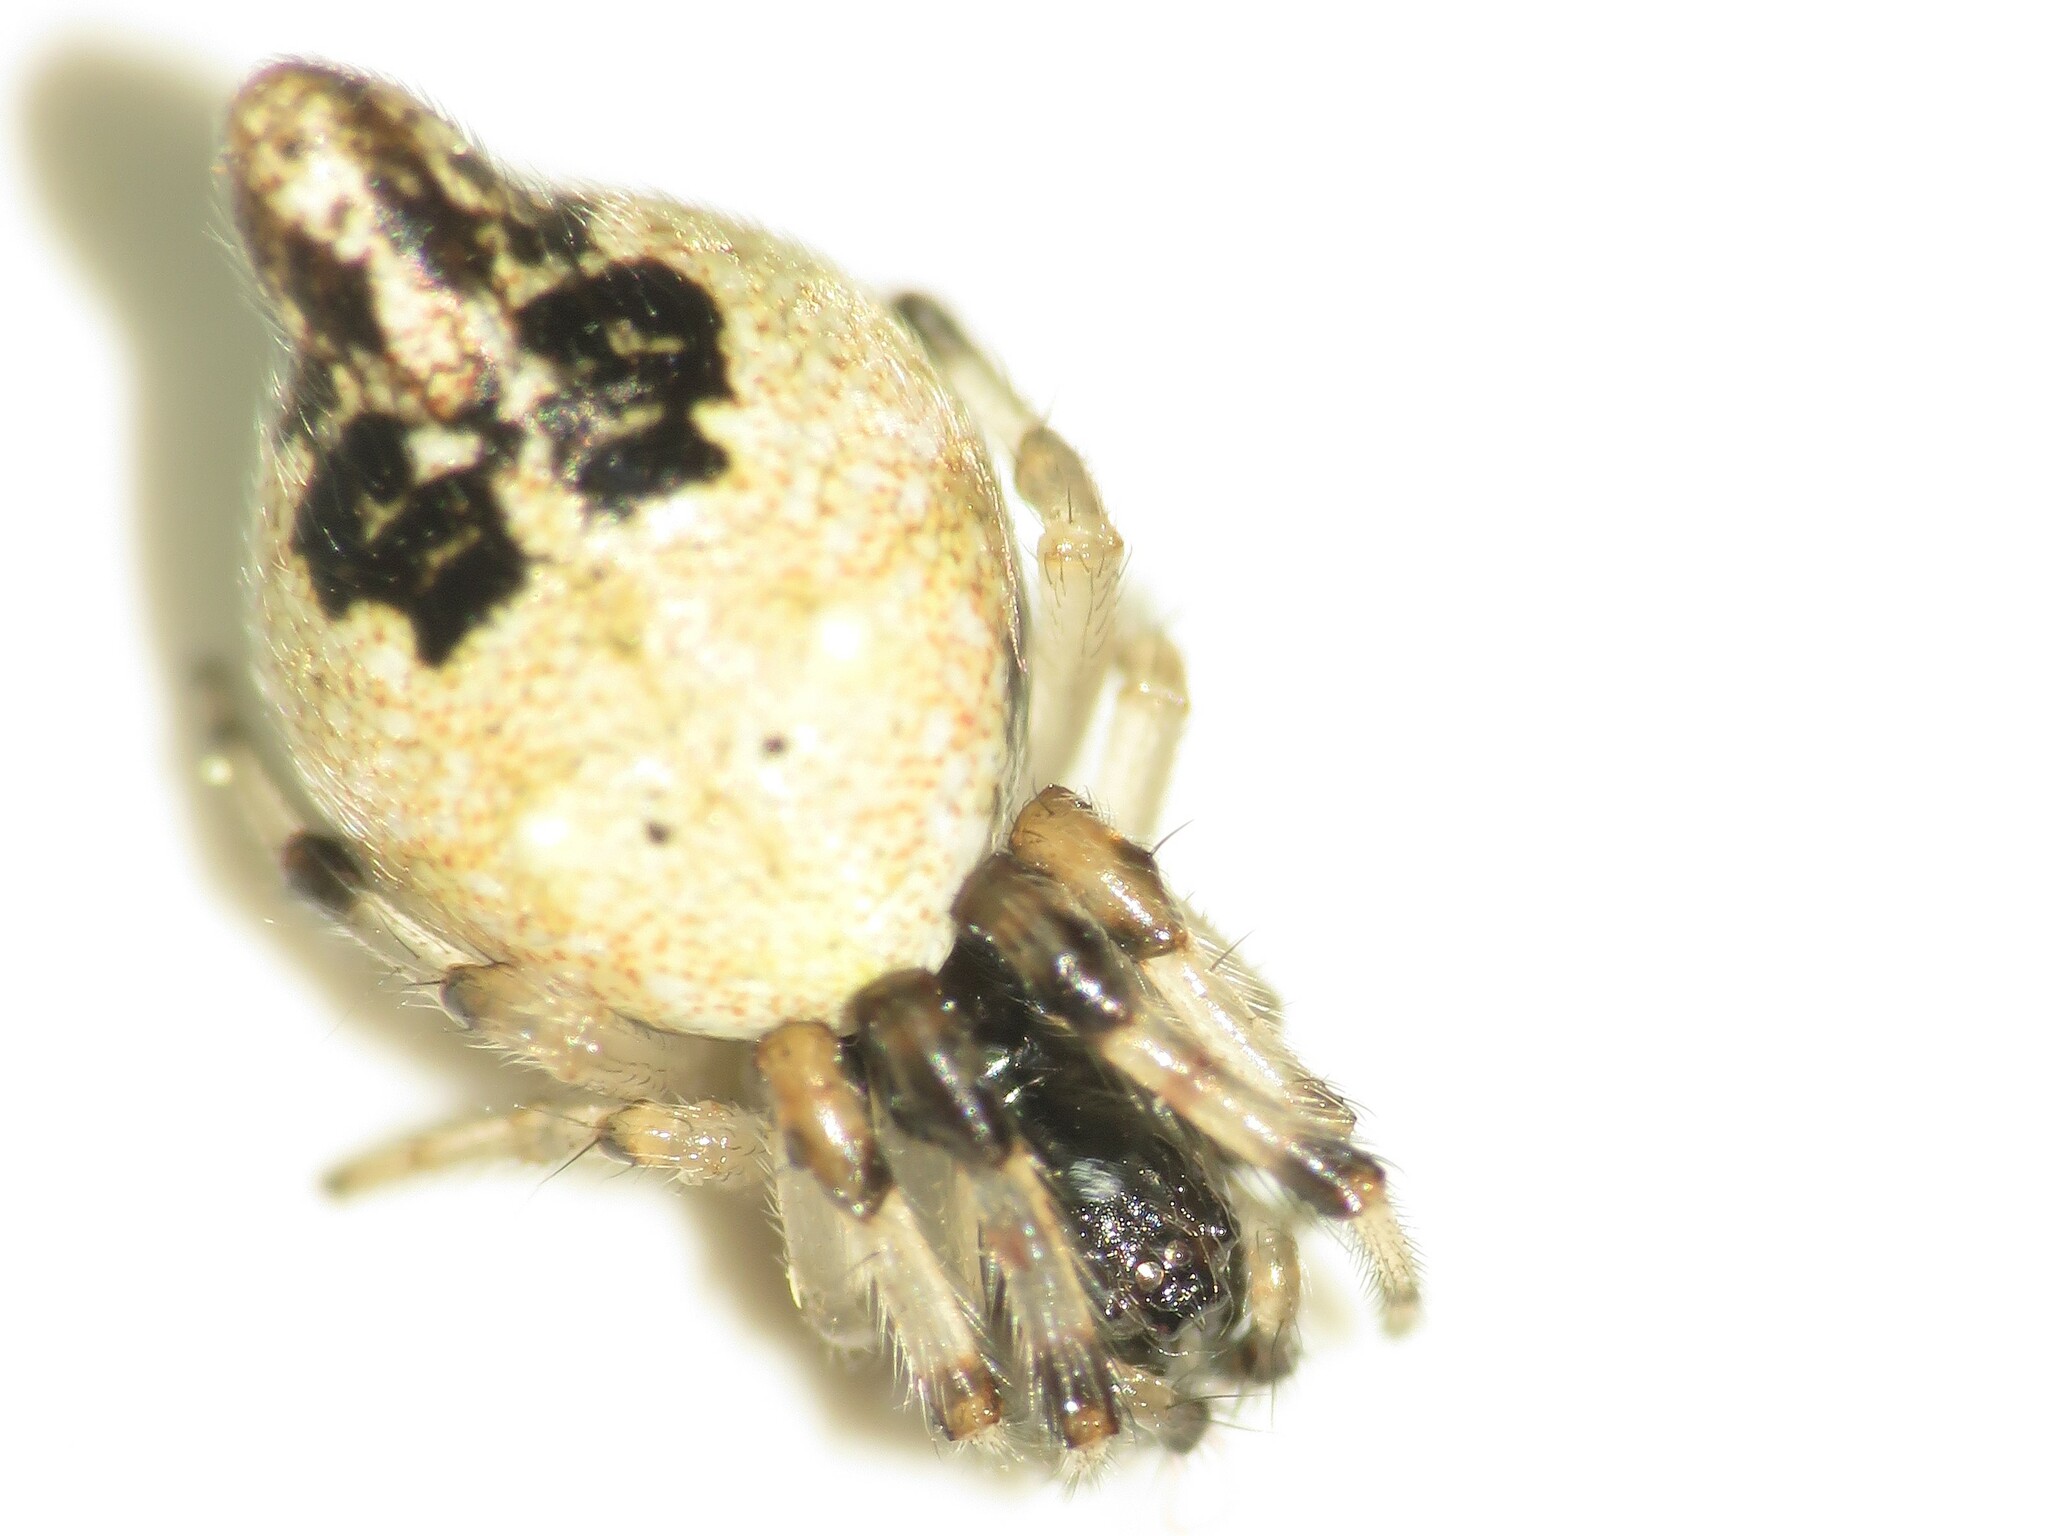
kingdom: Animalia
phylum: Arthropoda
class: Arachnida
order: Araneae
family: Araneidae
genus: Cyclosa
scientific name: Cyclosa turbinata
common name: Orb weavers
